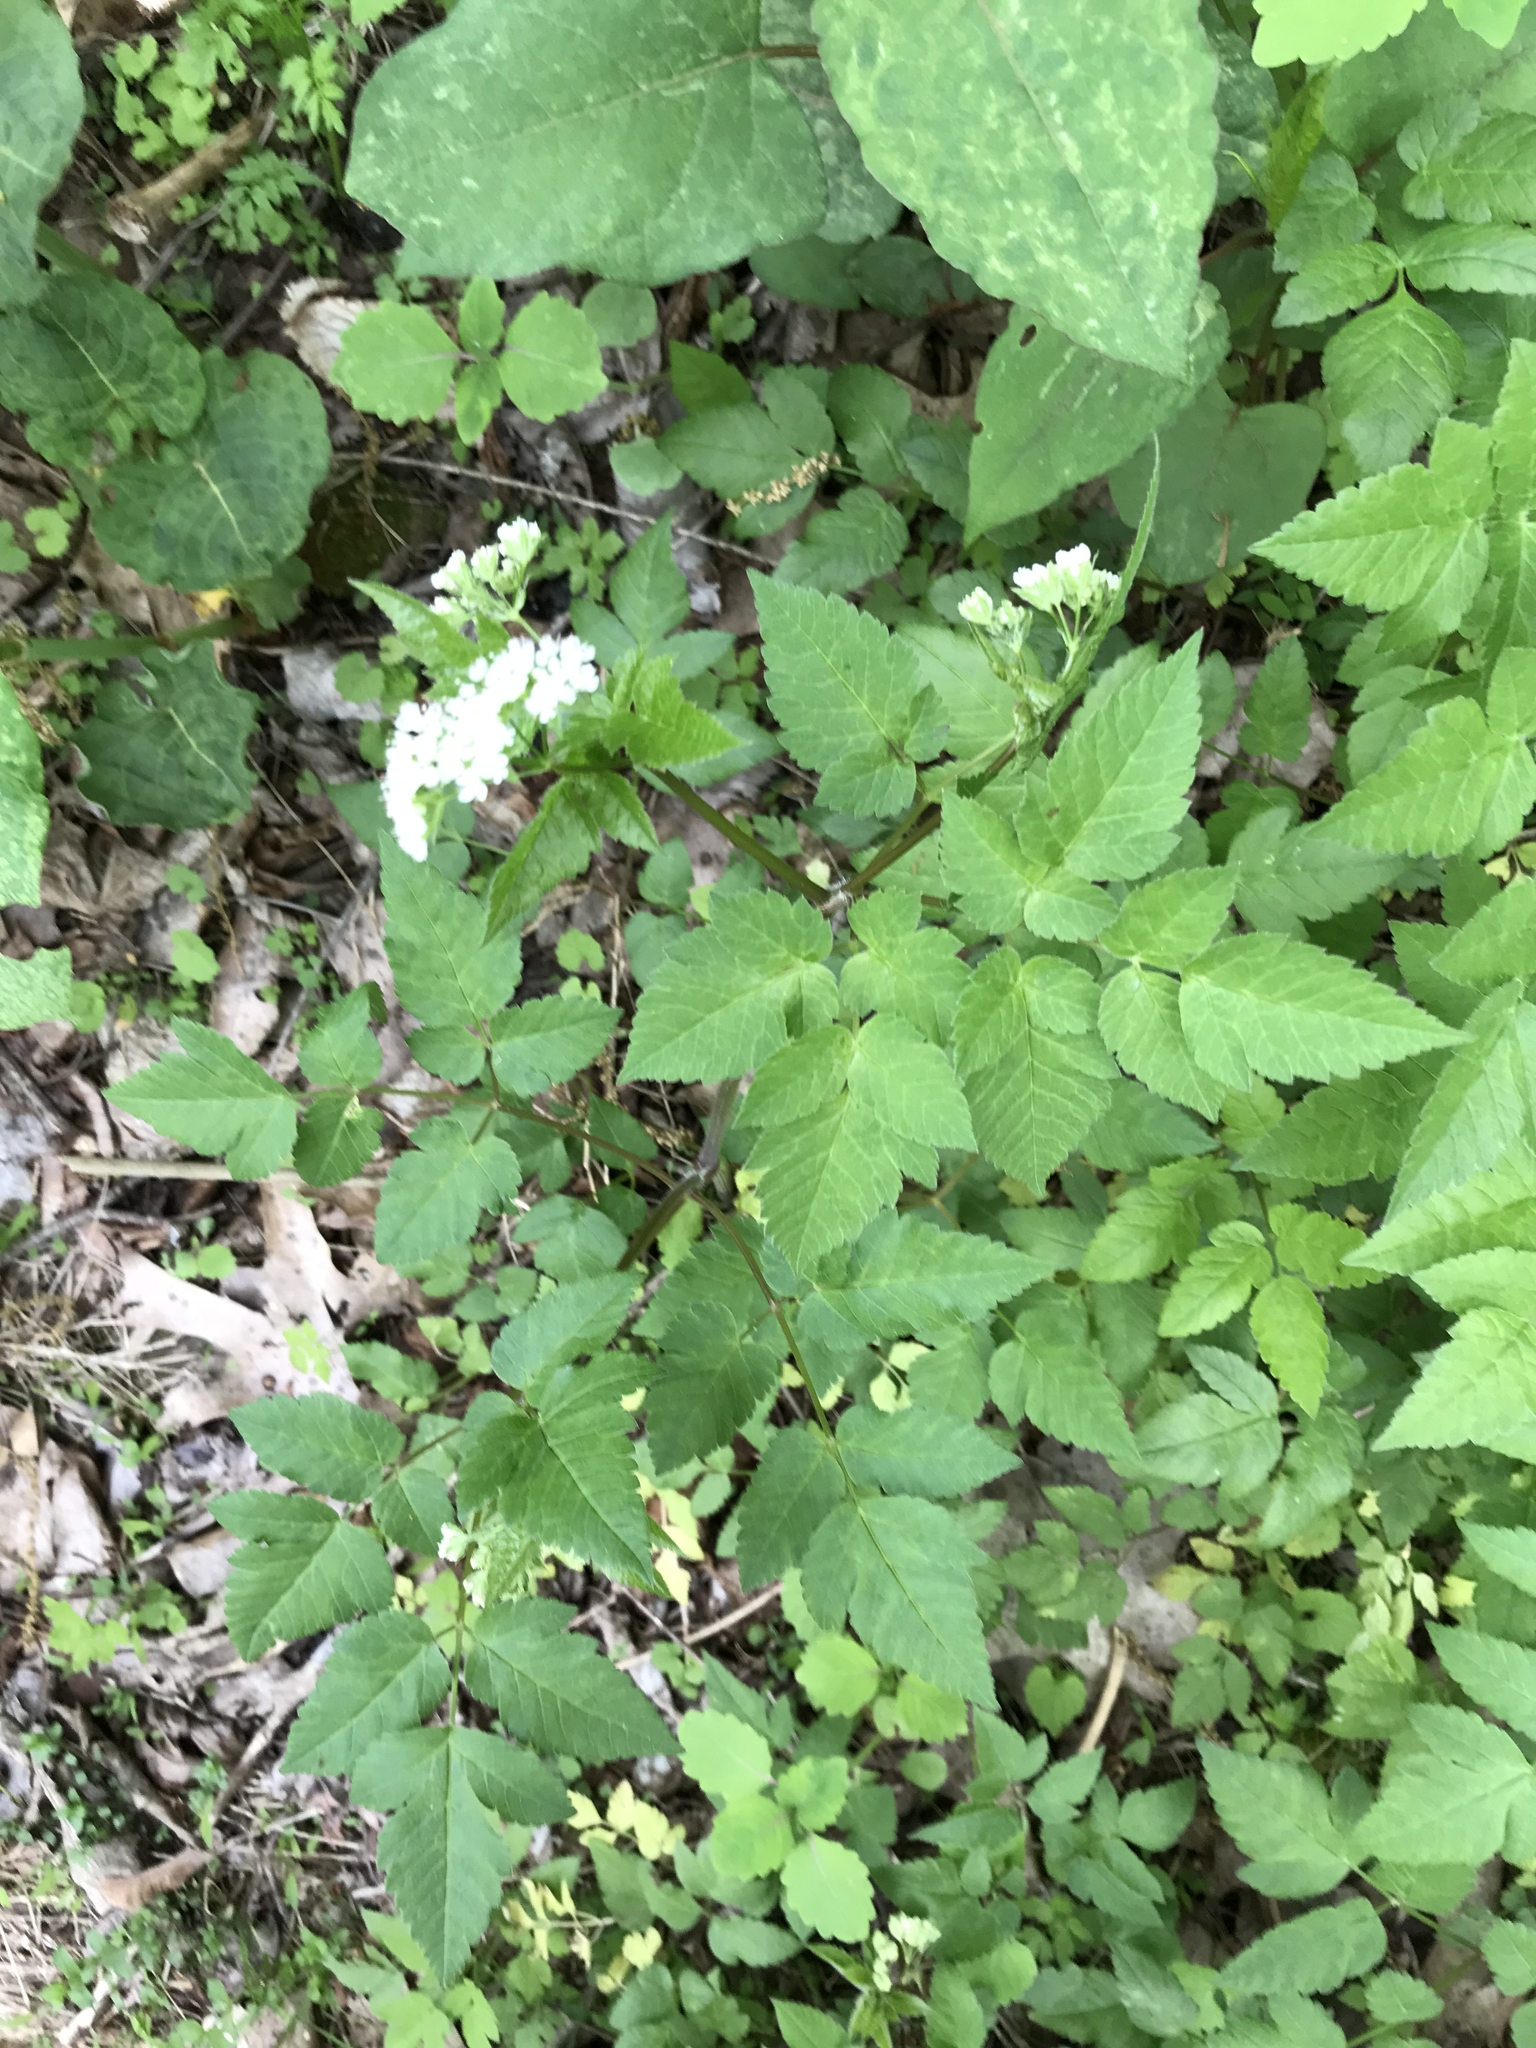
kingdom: Plantae
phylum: Tracheophyta
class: Magnoliopsida
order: Apiales
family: Apiaceae
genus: Osmorhiza
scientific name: Osmorhiza longistylis
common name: Smooth sweet cicely
